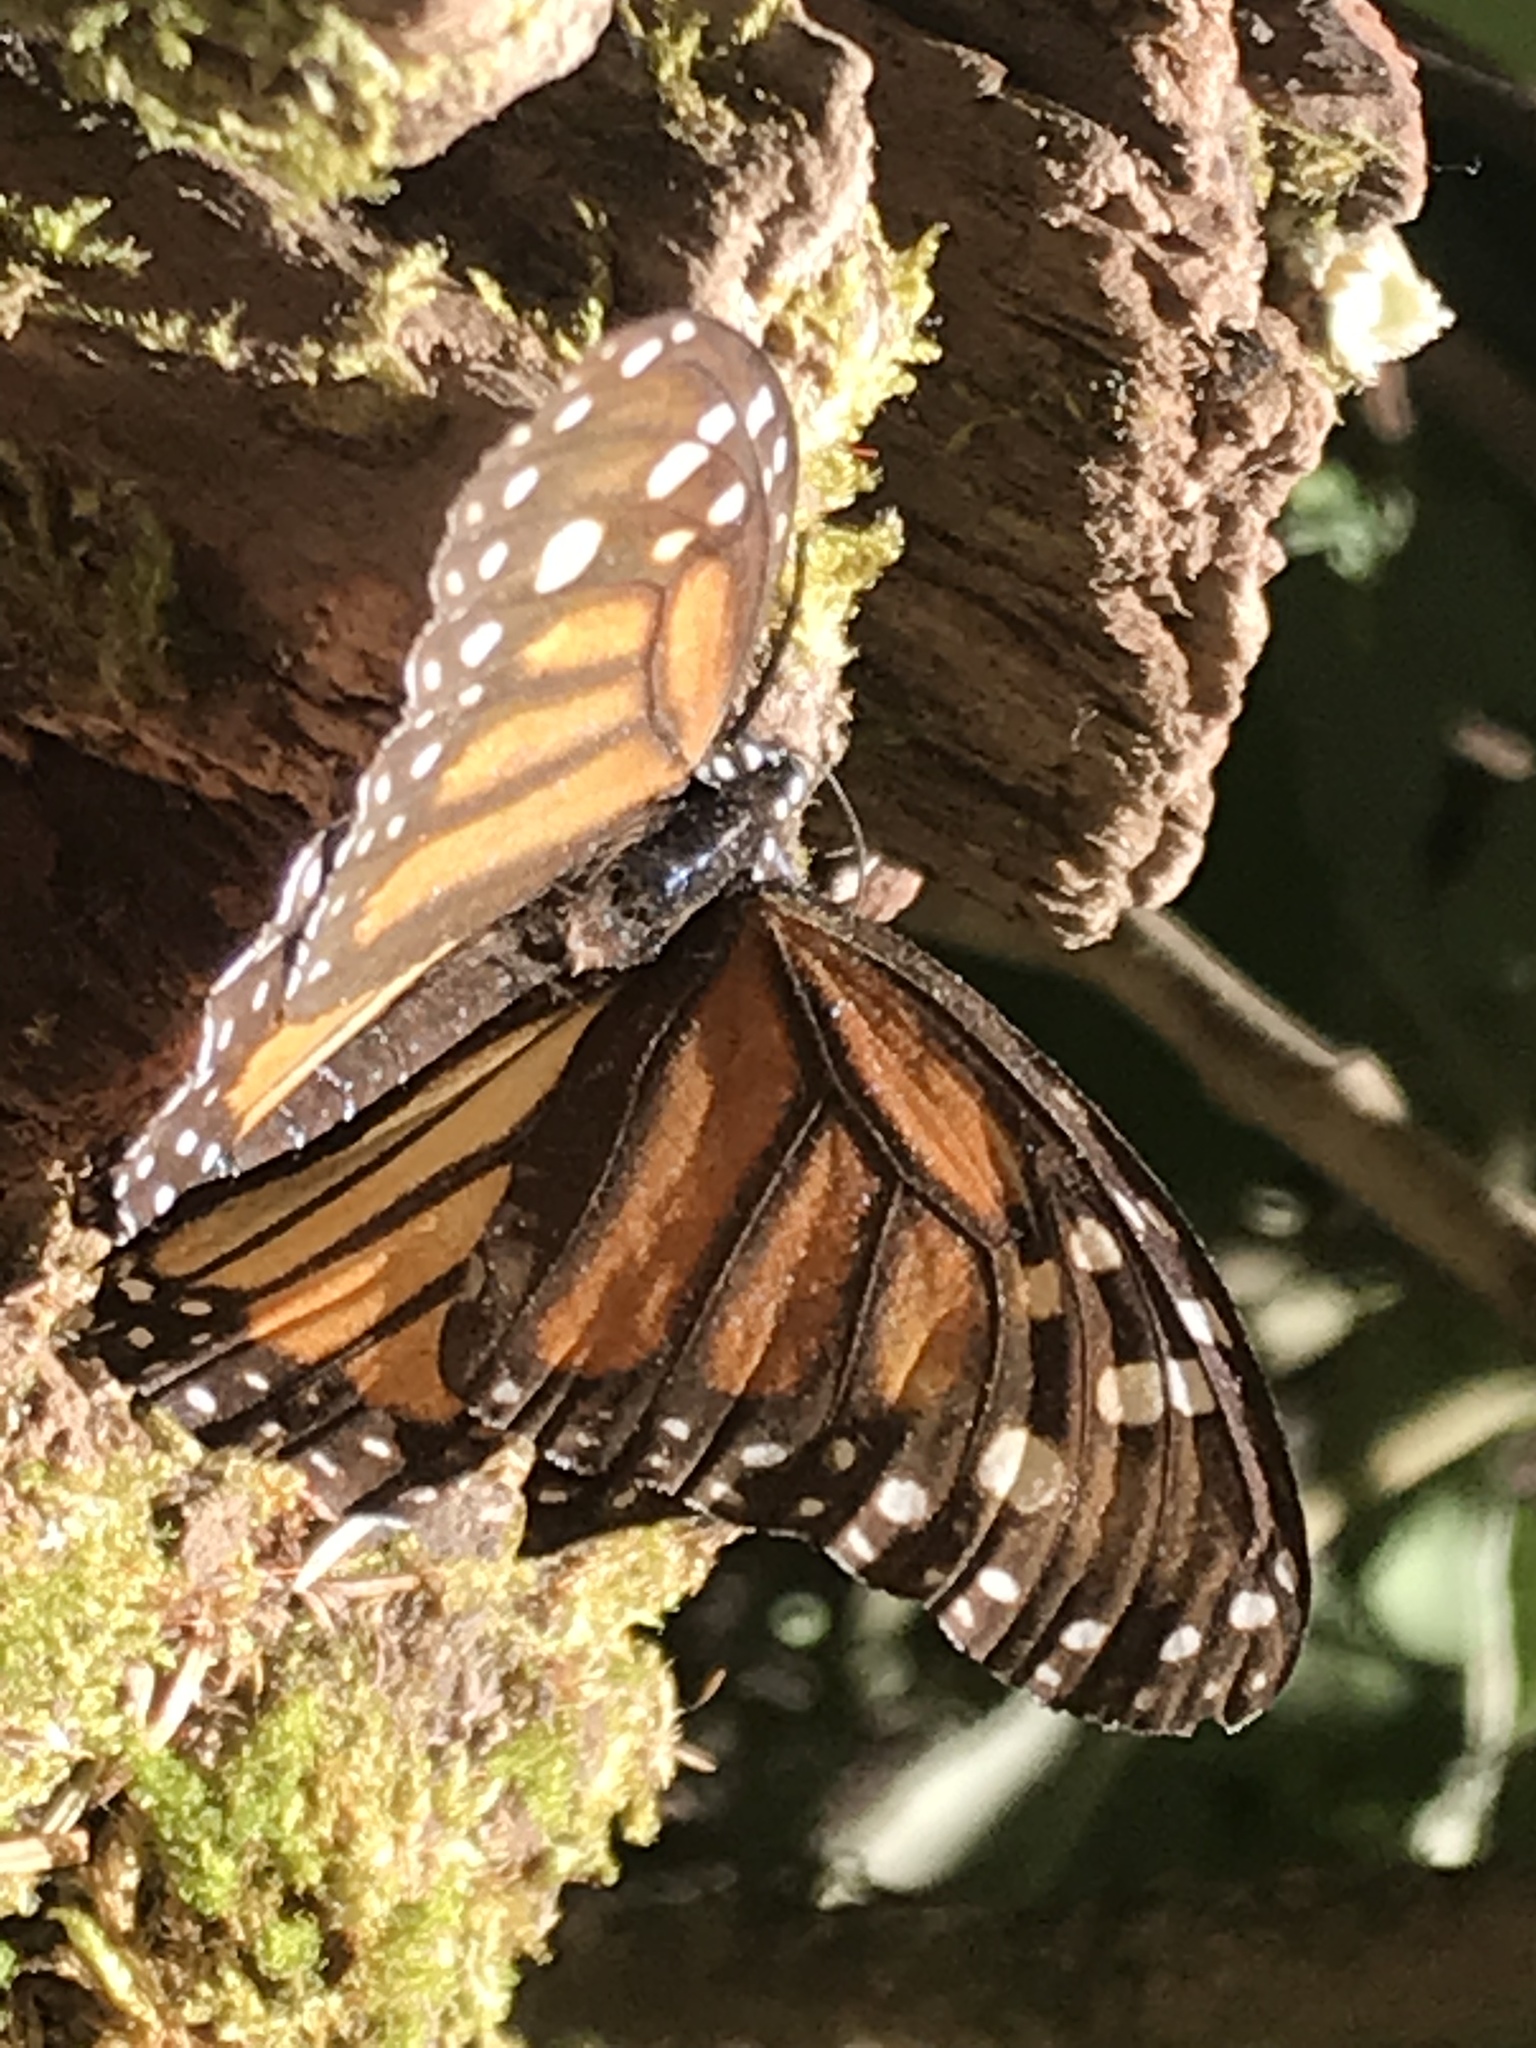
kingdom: Animalia
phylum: Arthropoda
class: Insecta
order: Lepidoptera
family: Nymphalidae
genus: Danaus
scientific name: Danaus plexippus
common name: Monarch
